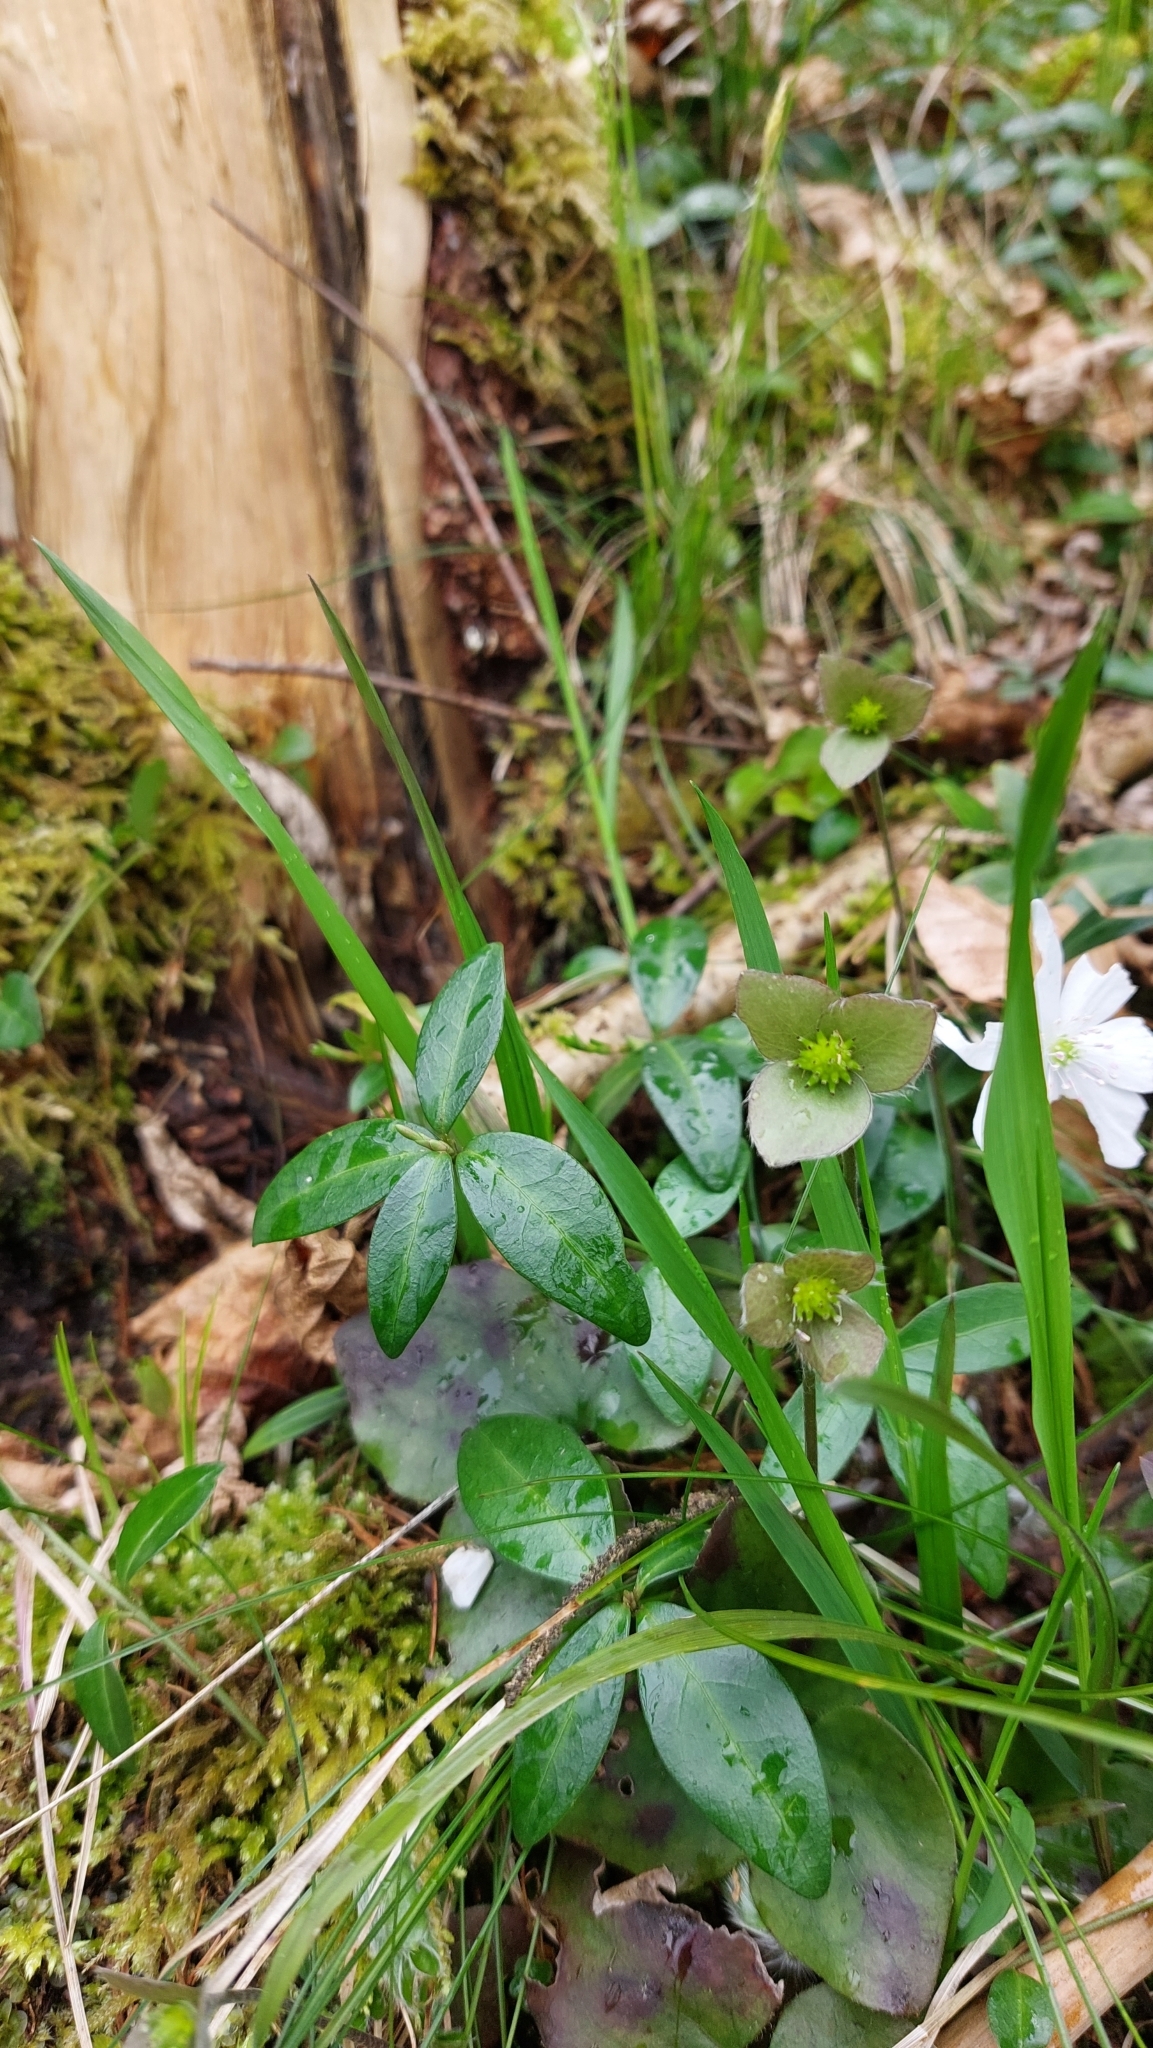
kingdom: Plantae
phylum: Tracheophyta
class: Magnoliopsida
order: Ranunculales
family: Ranunculaceae
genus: Hepatica
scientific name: Hepatica nobilis
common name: Liverleaf
